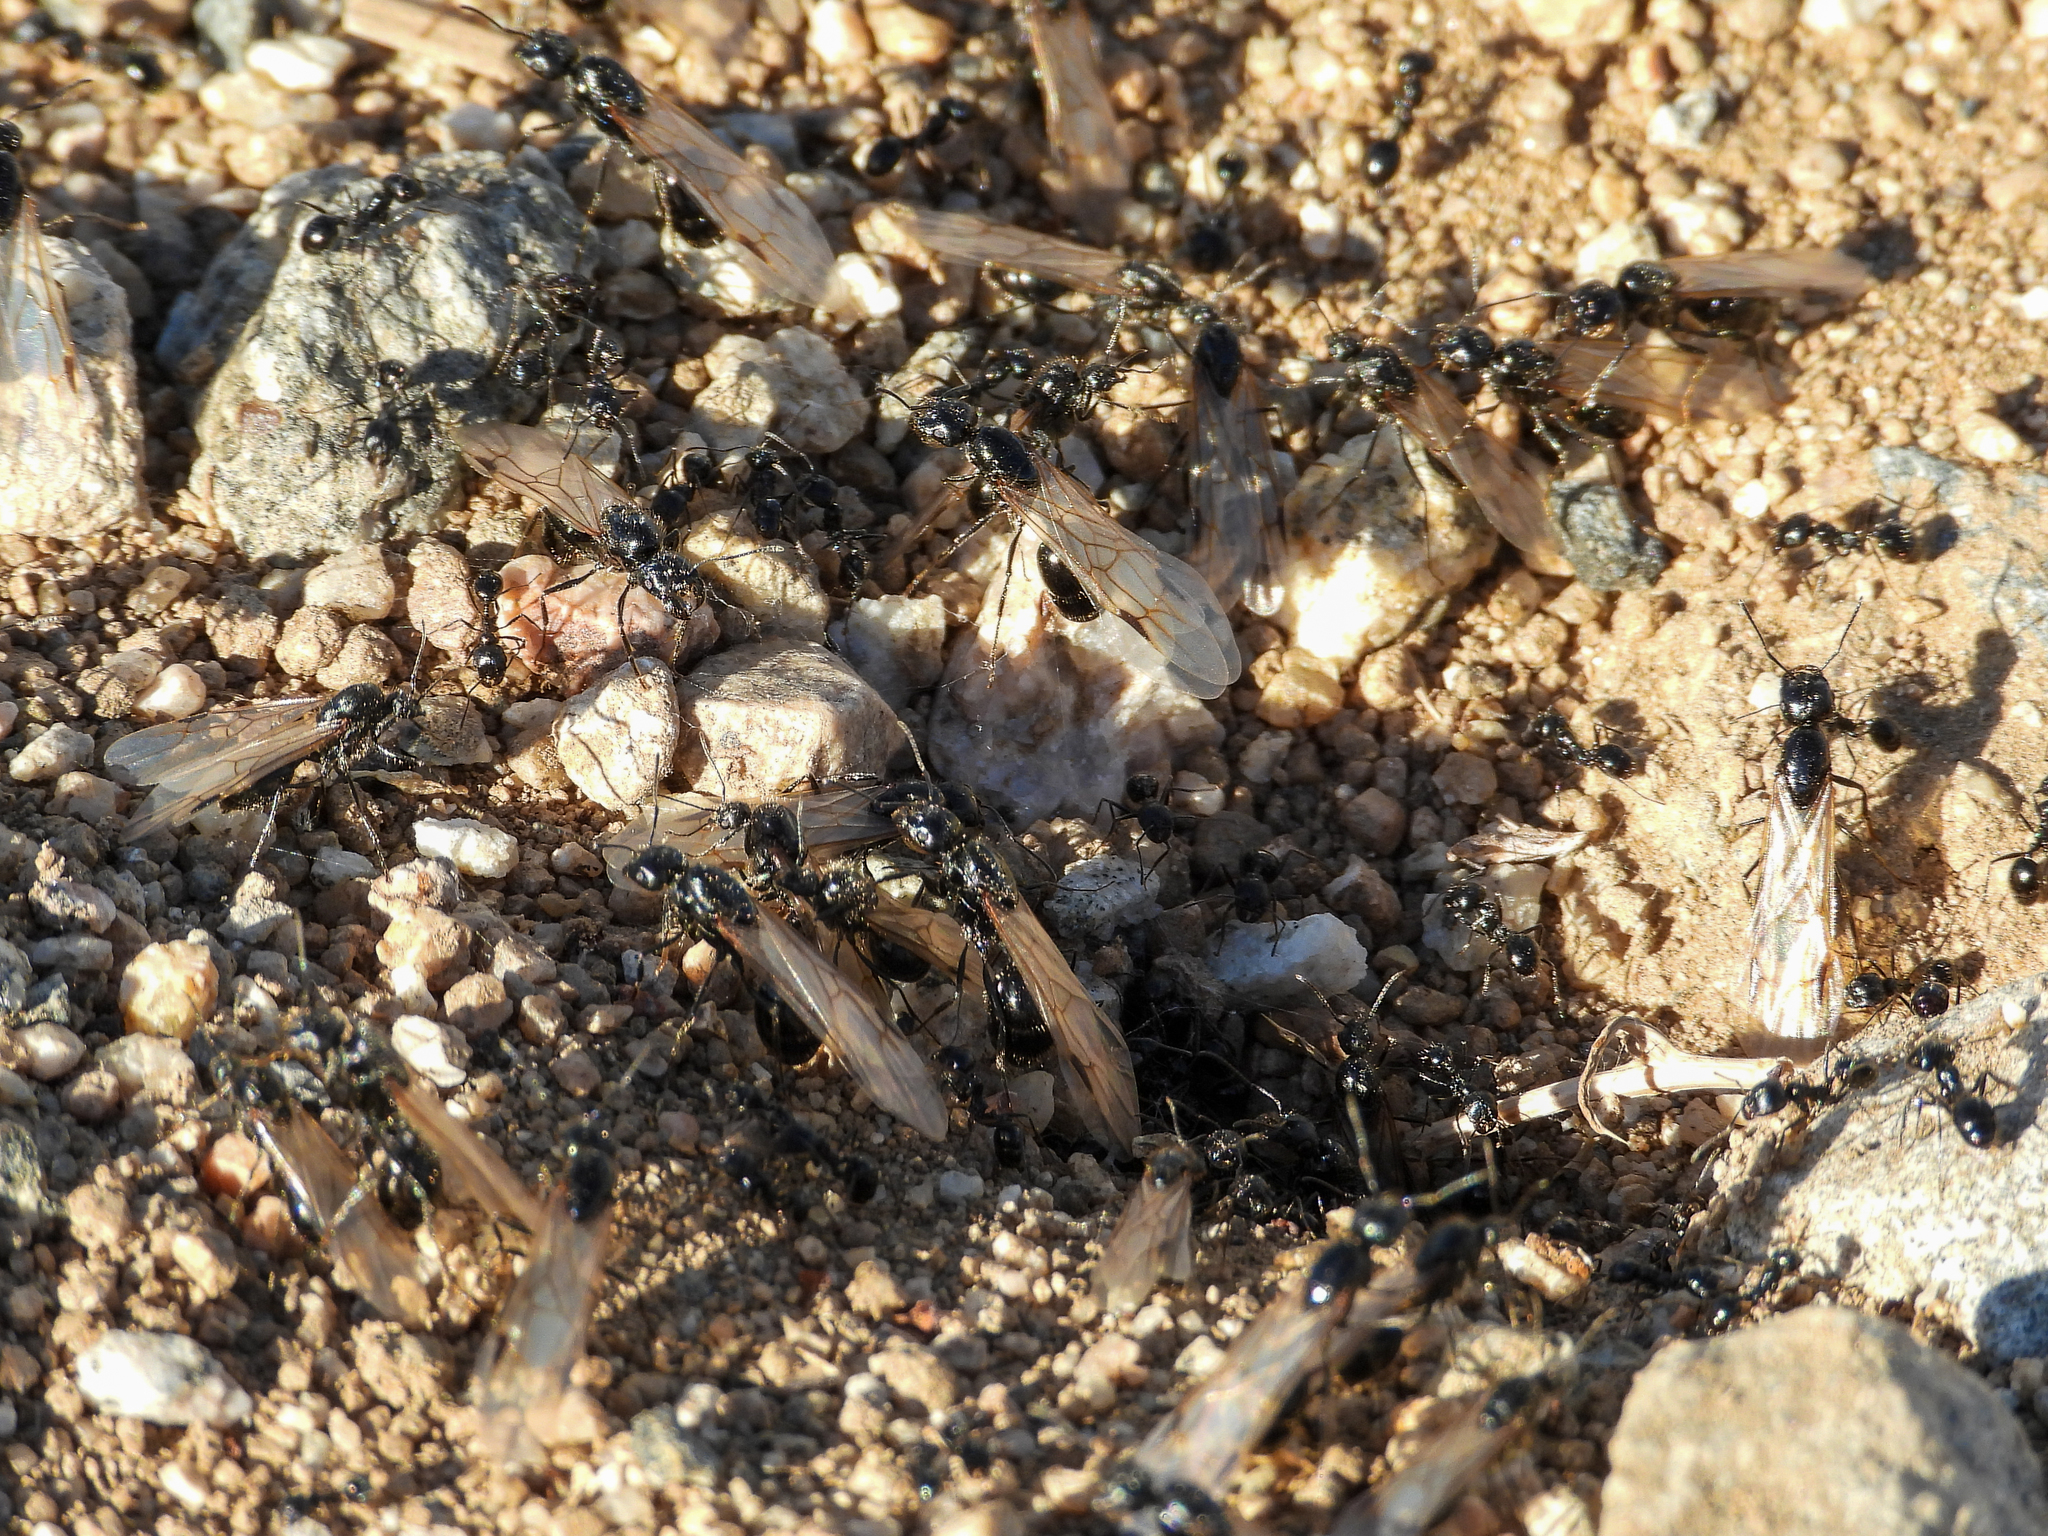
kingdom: Animalia
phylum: Arthropoda
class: Insecta
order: Hymenoptera
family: Formicidae
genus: Messor
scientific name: Messor pergandei
